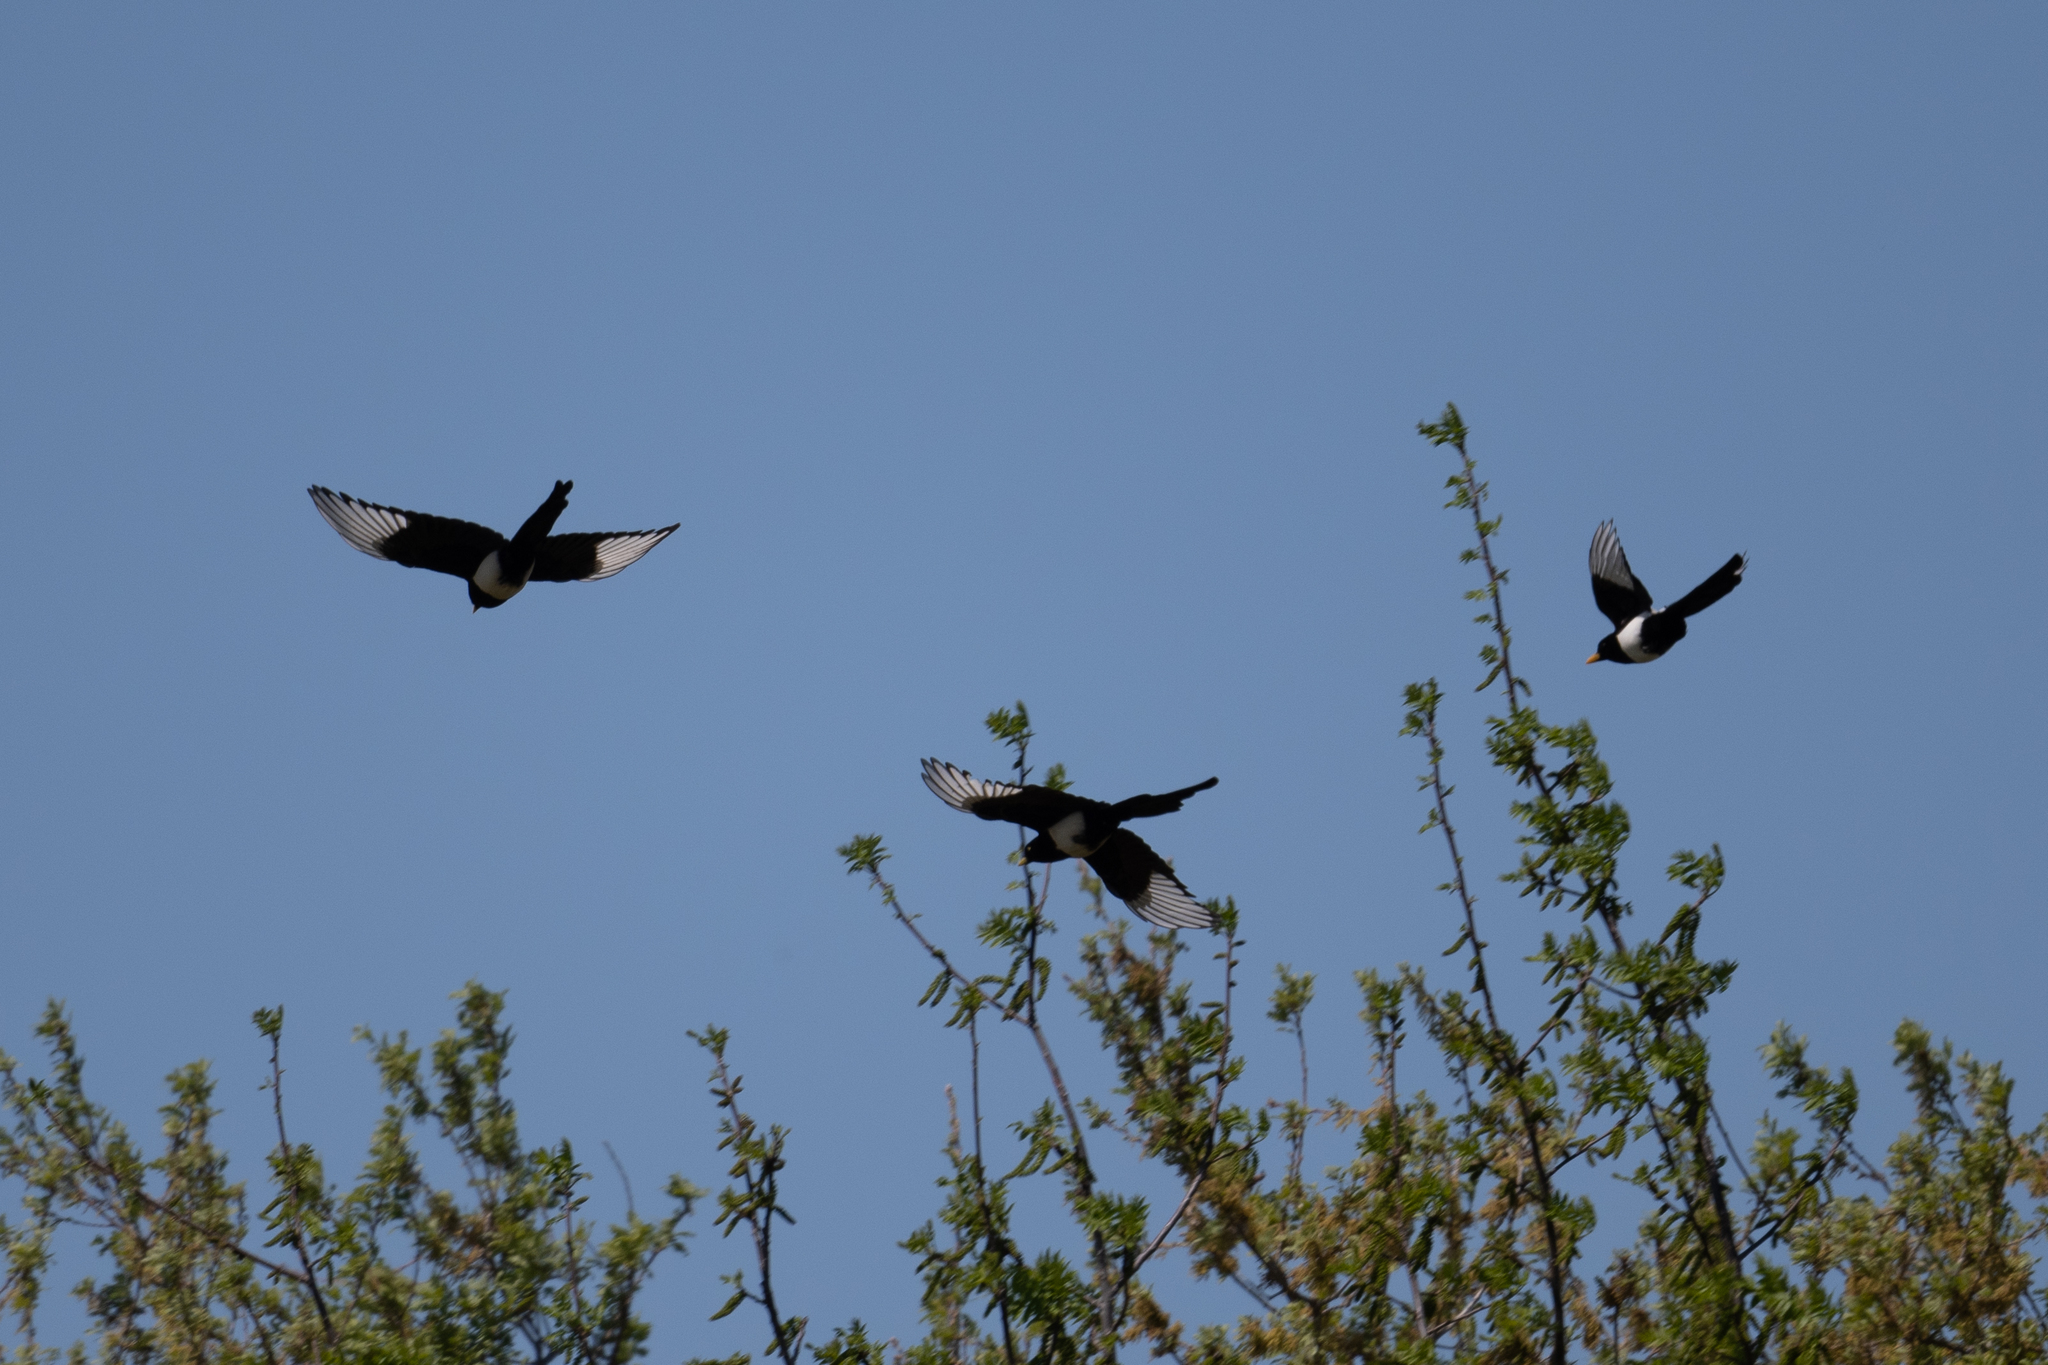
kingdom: Animalia
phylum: Chordata
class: Aves
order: Passeriformes
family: Corvidae
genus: Pica
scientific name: Pica nuttalli
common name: Yellow-billed magpie
